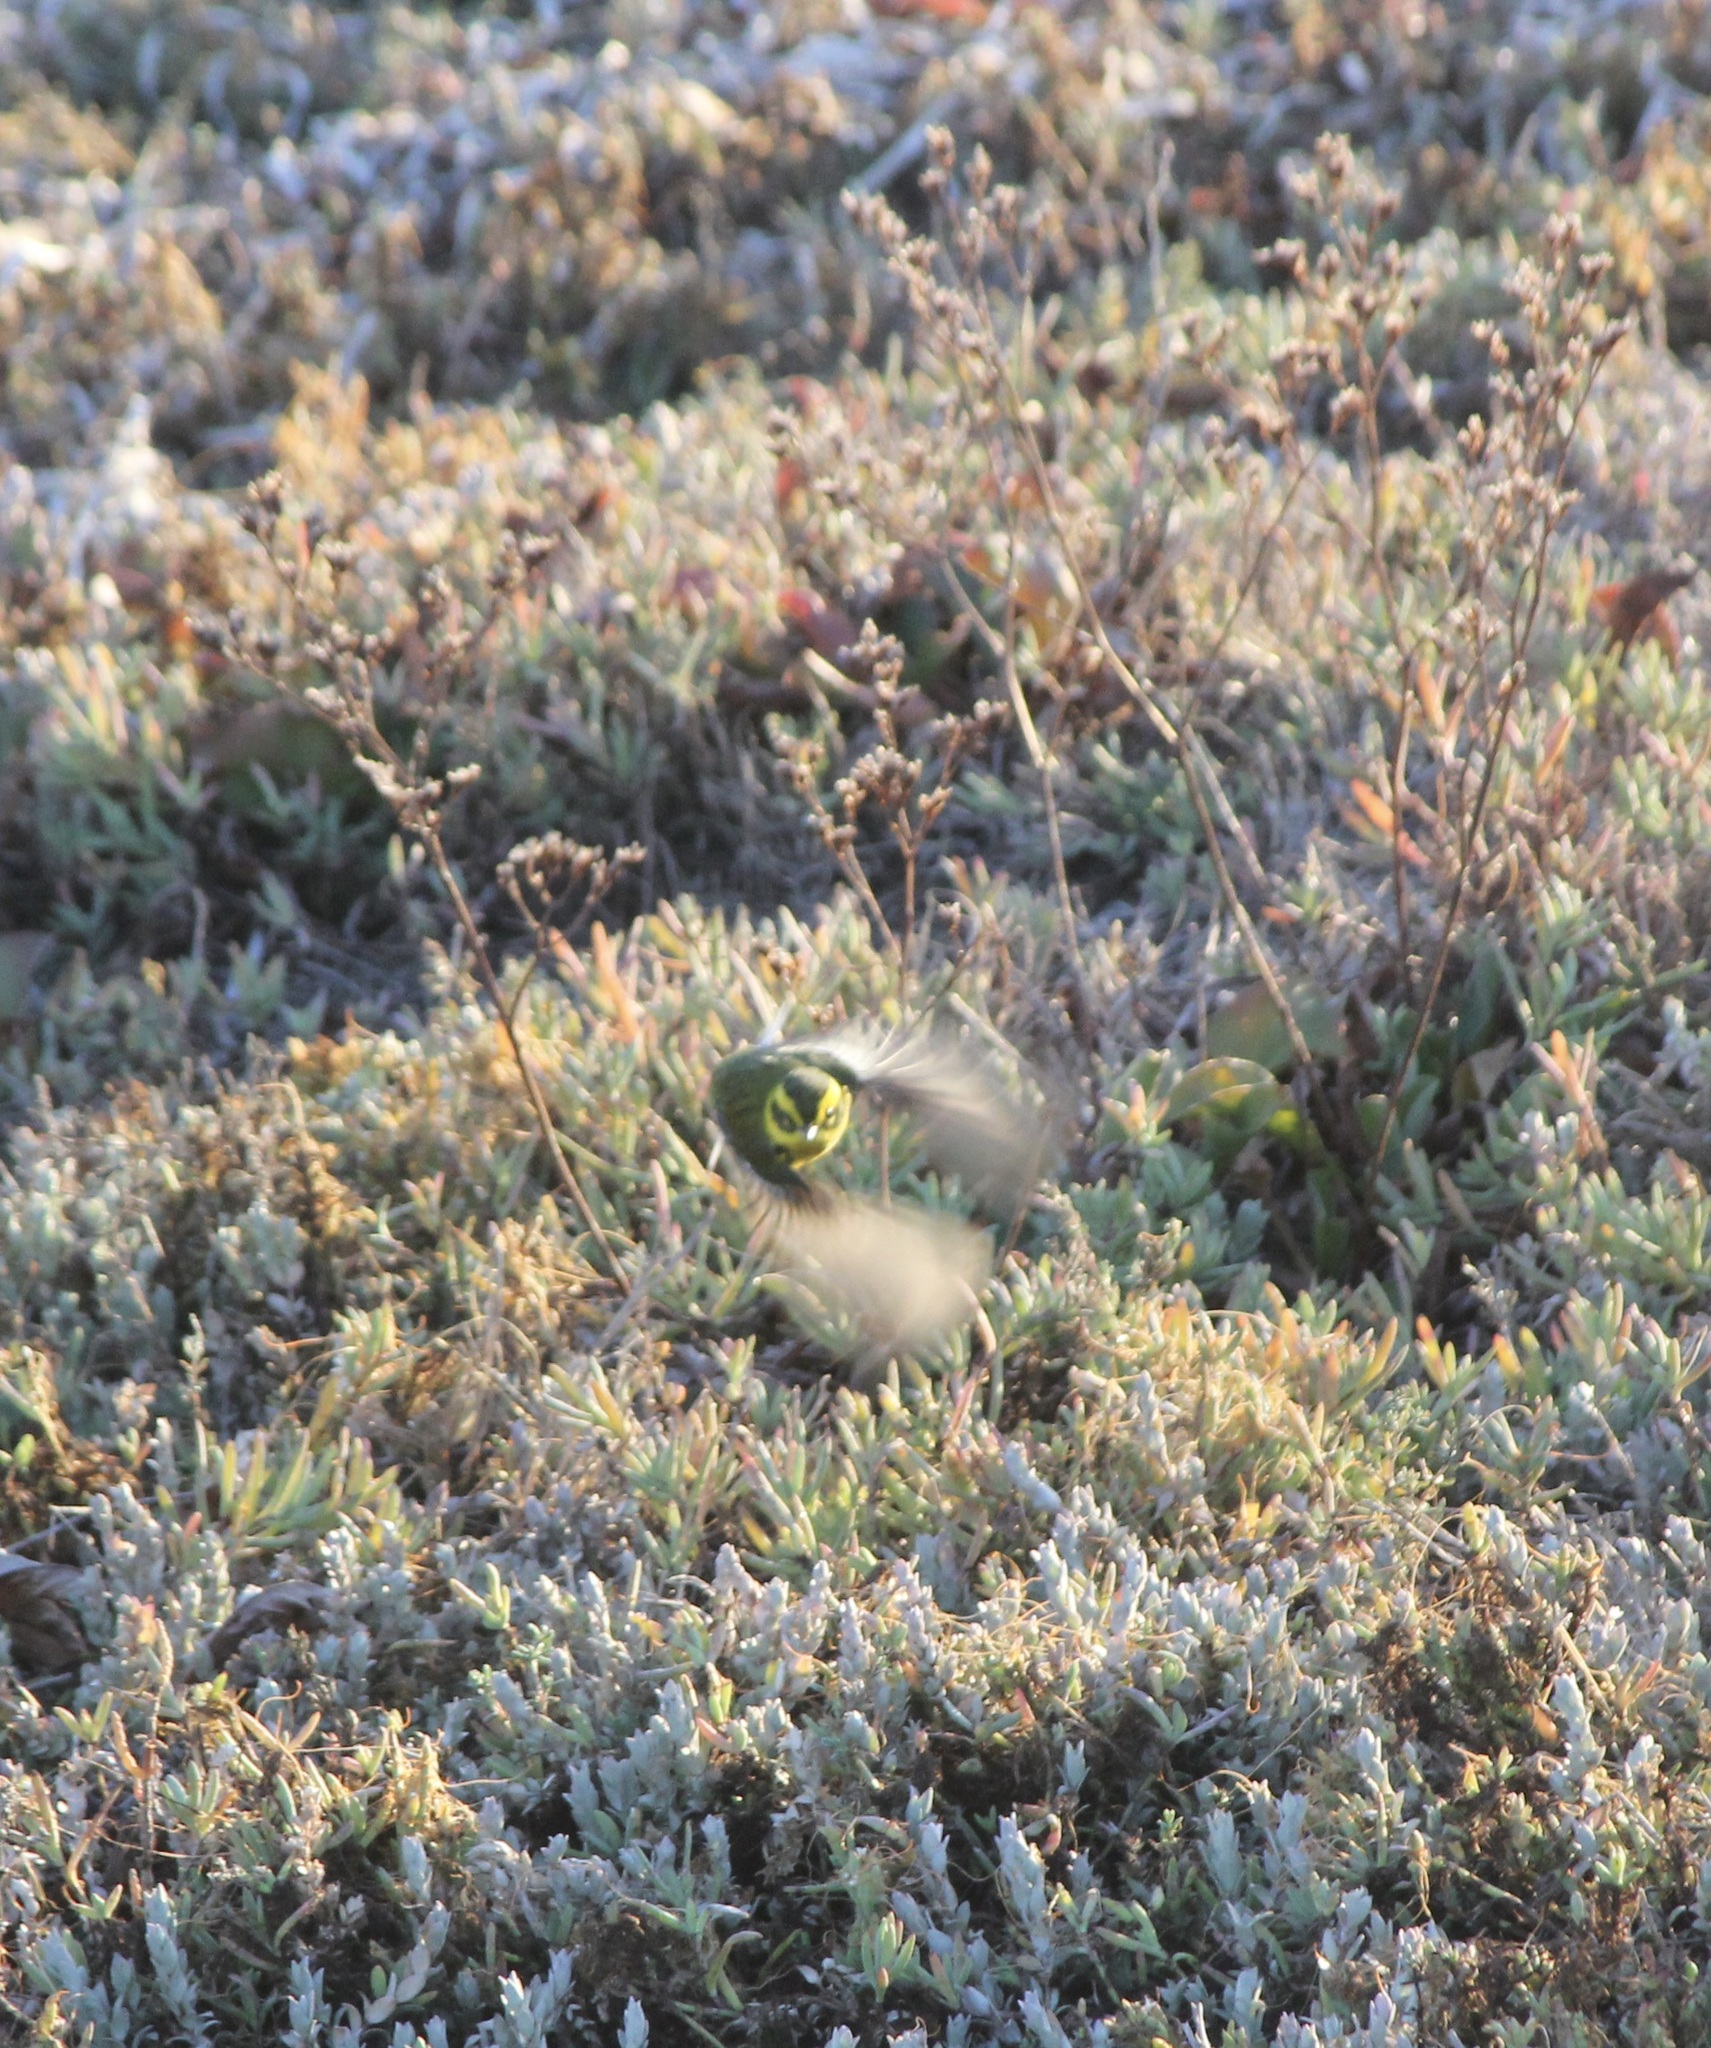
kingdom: Animalia
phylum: Chordata
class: Aves
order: Passeriformes
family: Parulidae
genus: Setophaga
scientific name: Setophaga townsendi
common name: Townsend's warbler
